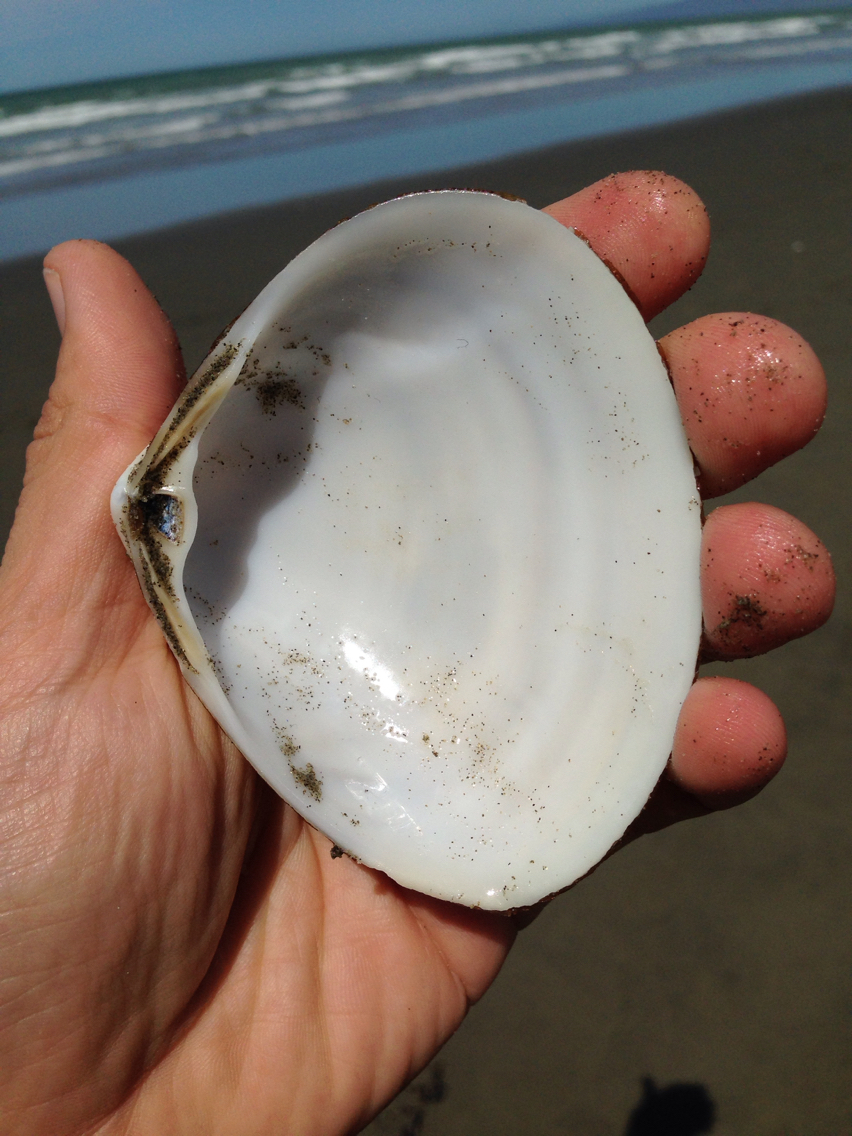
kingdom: Animalia
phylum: Mollusca
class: Bivalvia
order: Venerida
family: Mactridae
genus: Spisula
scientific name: Spisula murchisoni
